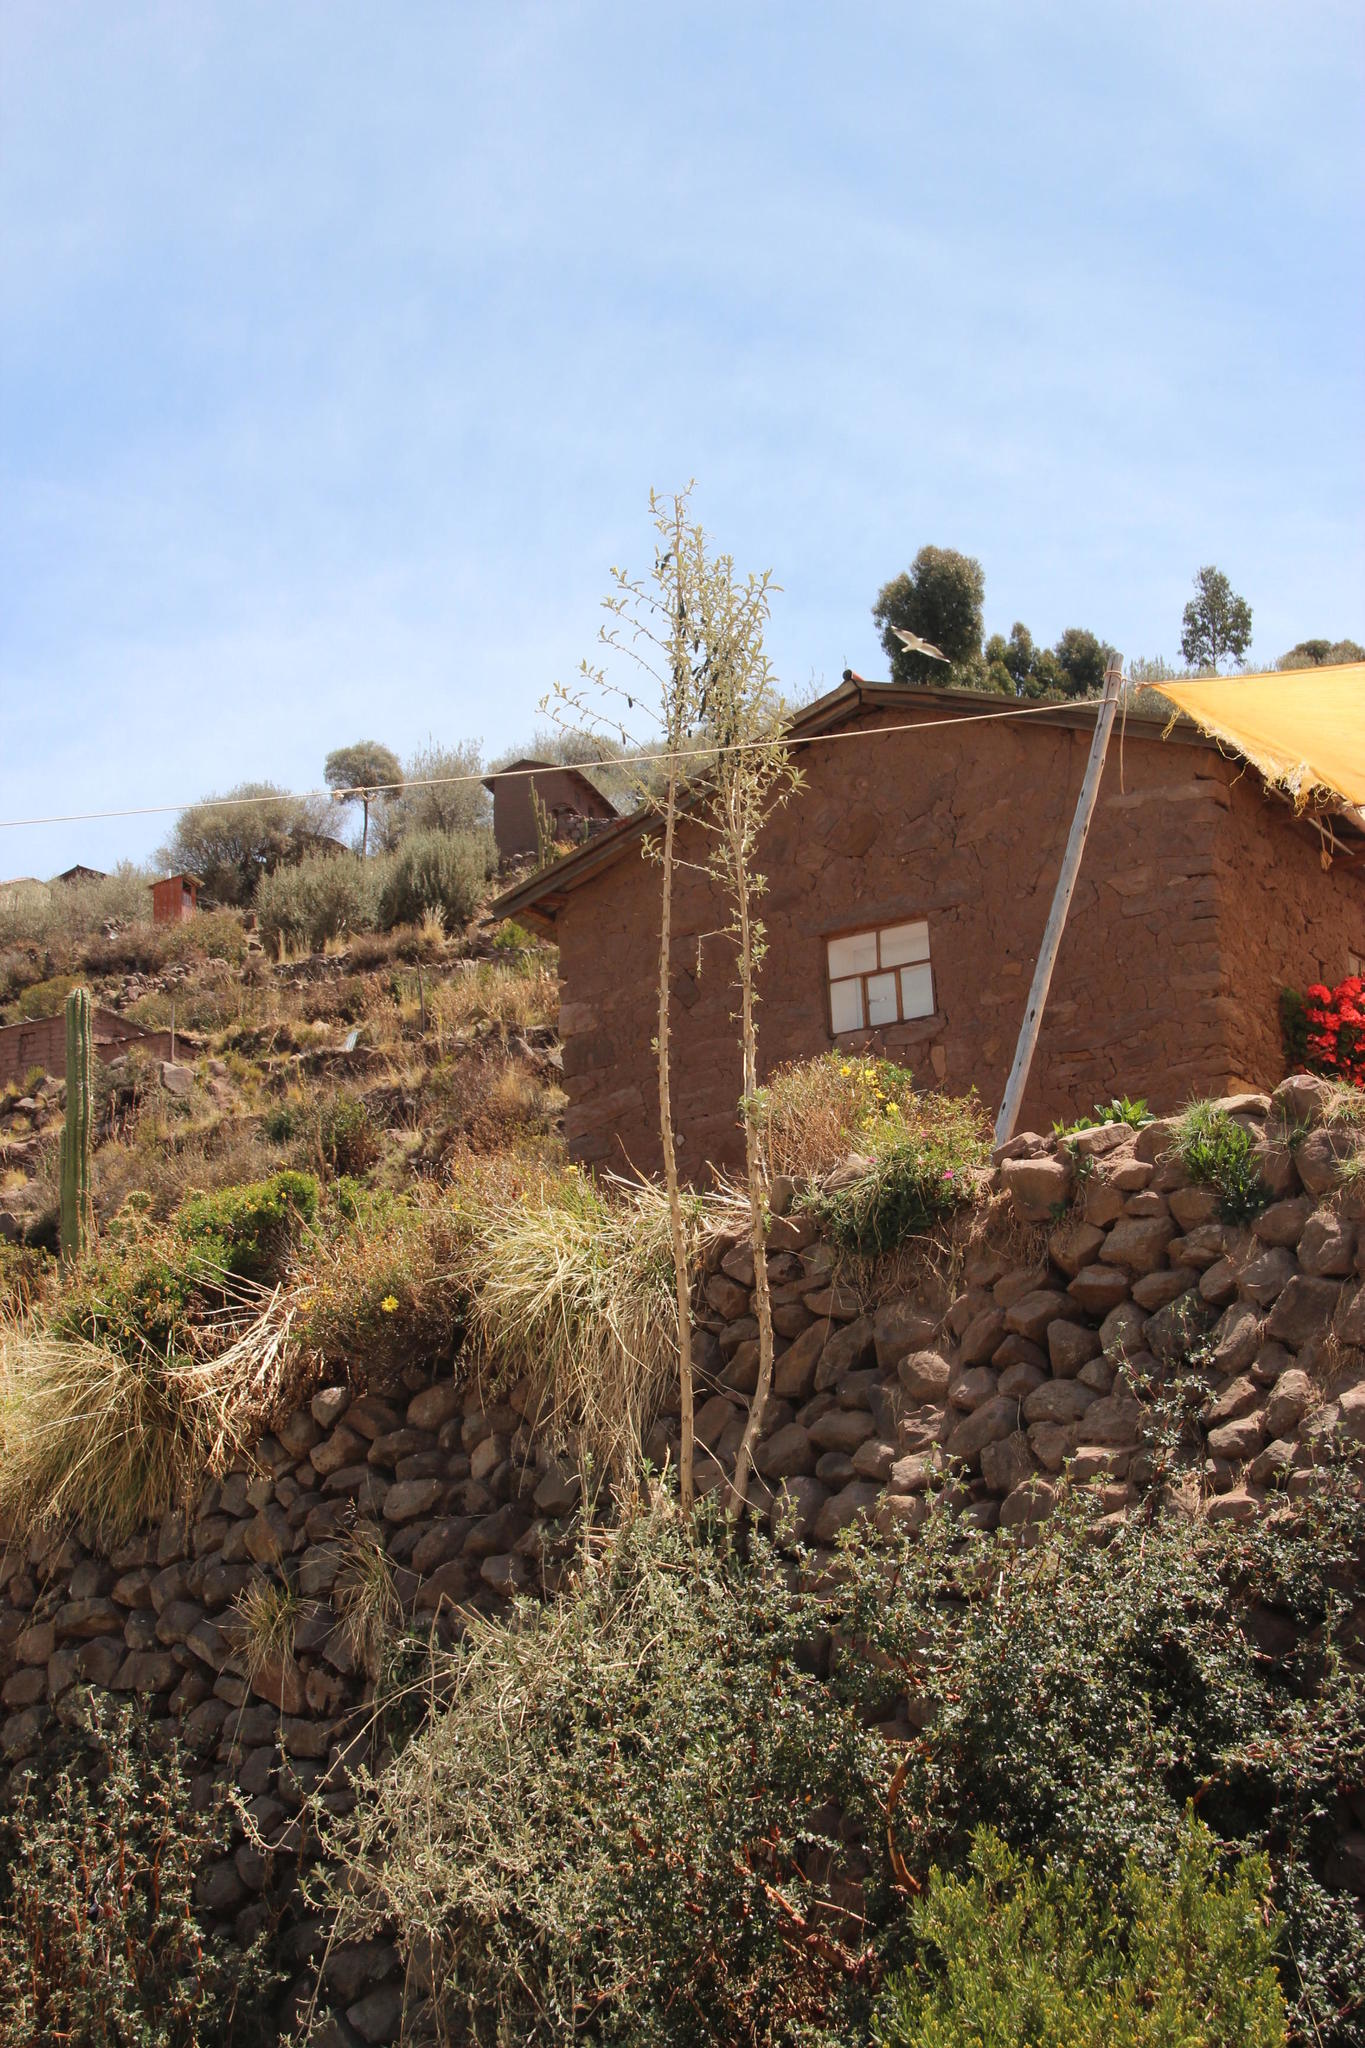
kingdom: Plantae
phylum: Tracheophyta
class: Magnoliopsida
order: Lamiales
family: Scrophulariaceae
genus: Buddleja
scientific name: Buddleja coriacea
